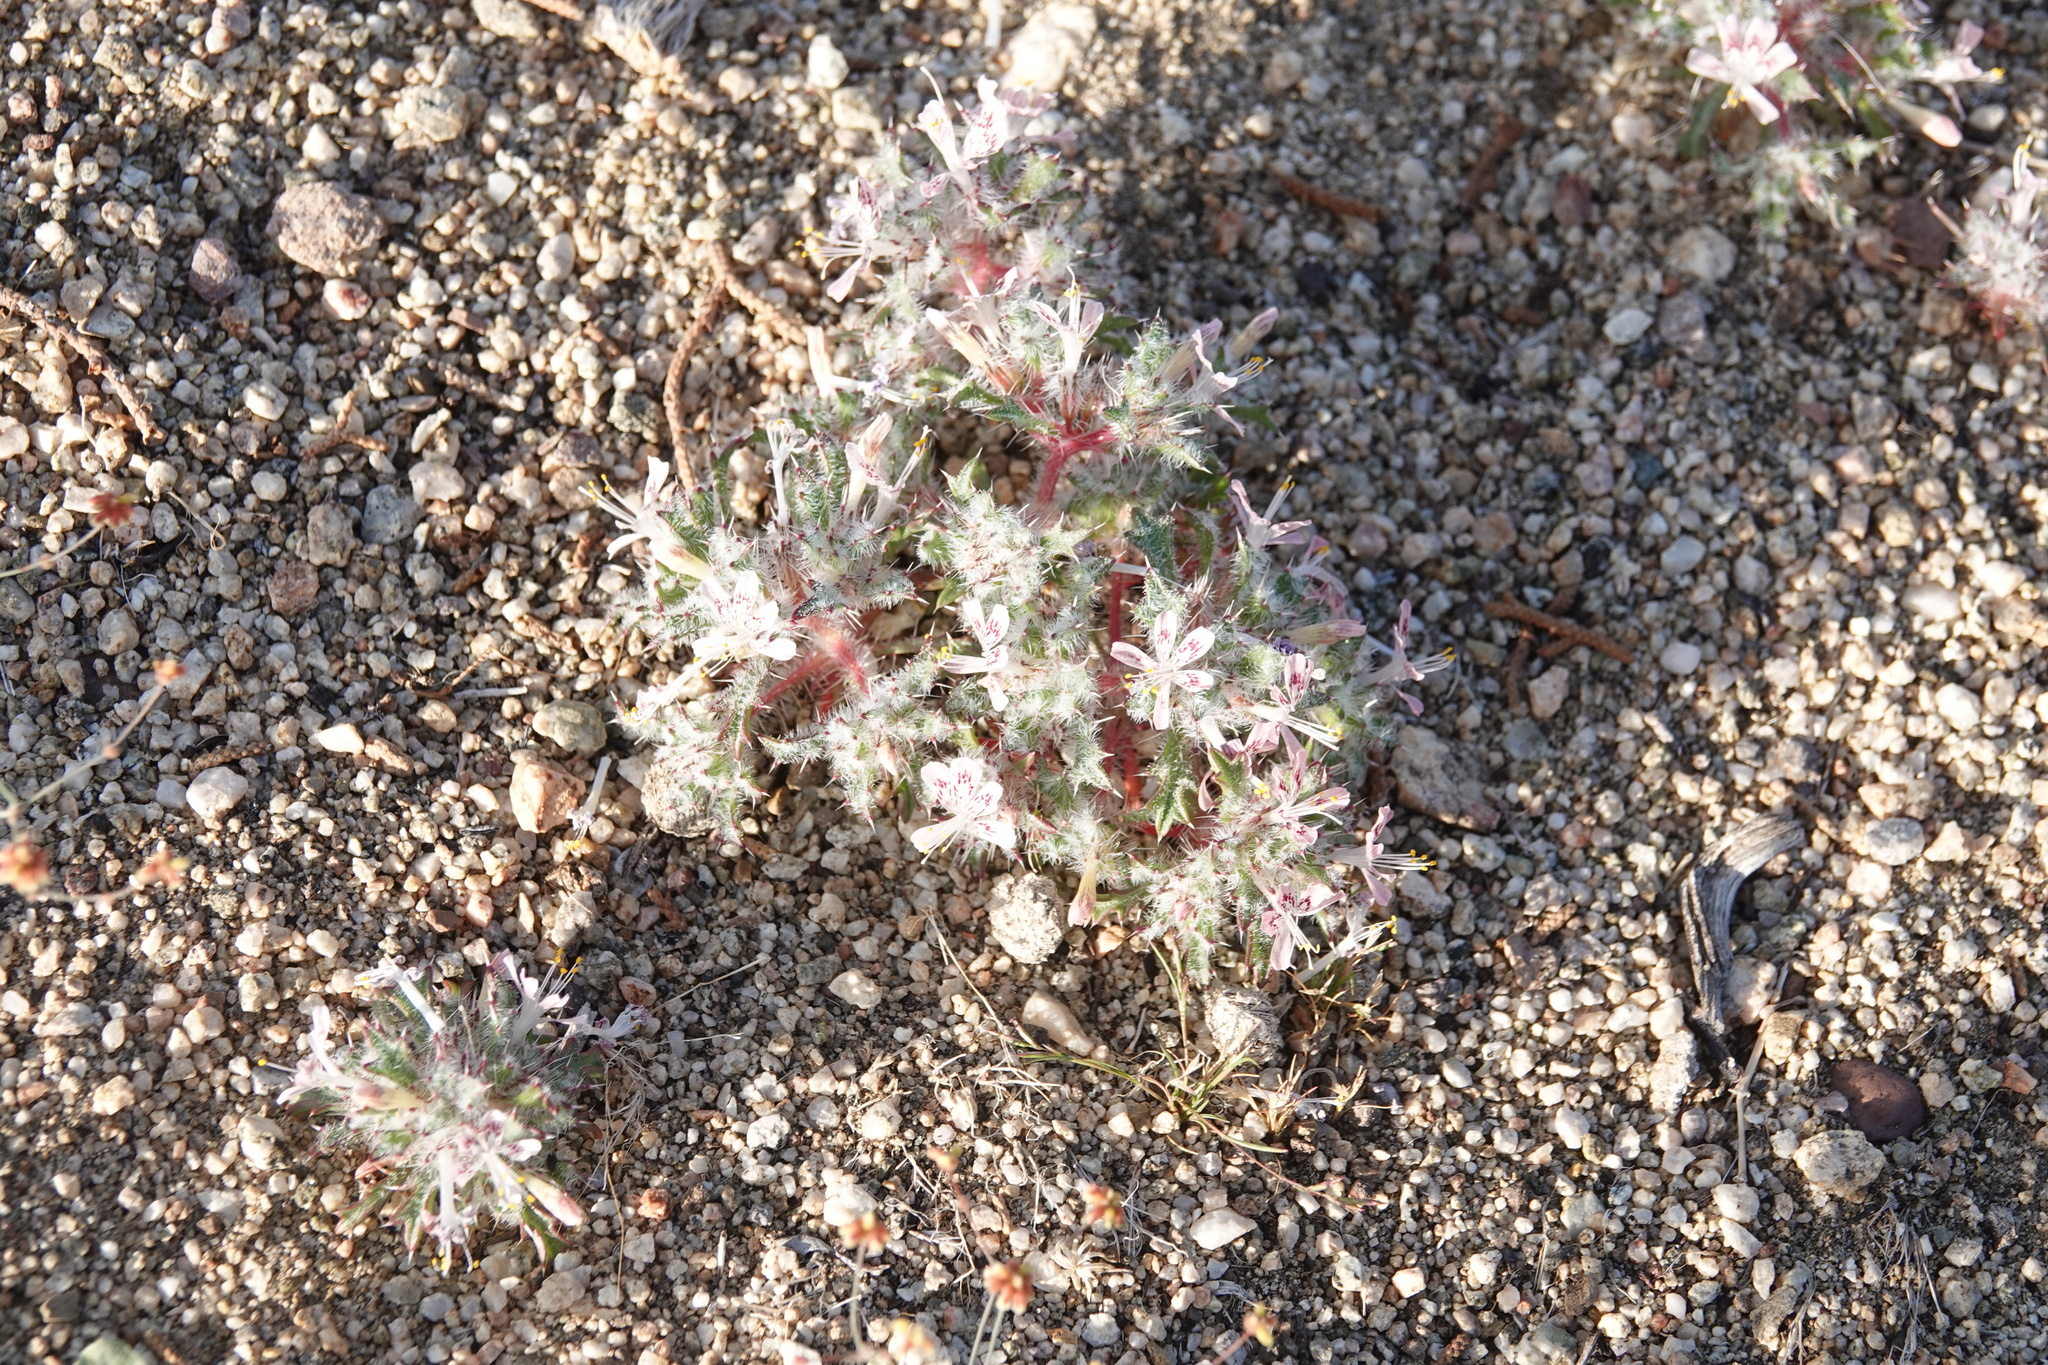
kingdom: Plantae
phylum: Tracheophyta
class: Magnoliopsida
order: Ericales
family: Polemoniaceae
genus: Loeseliastrum
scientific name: Loeseliastrum matthewsii
